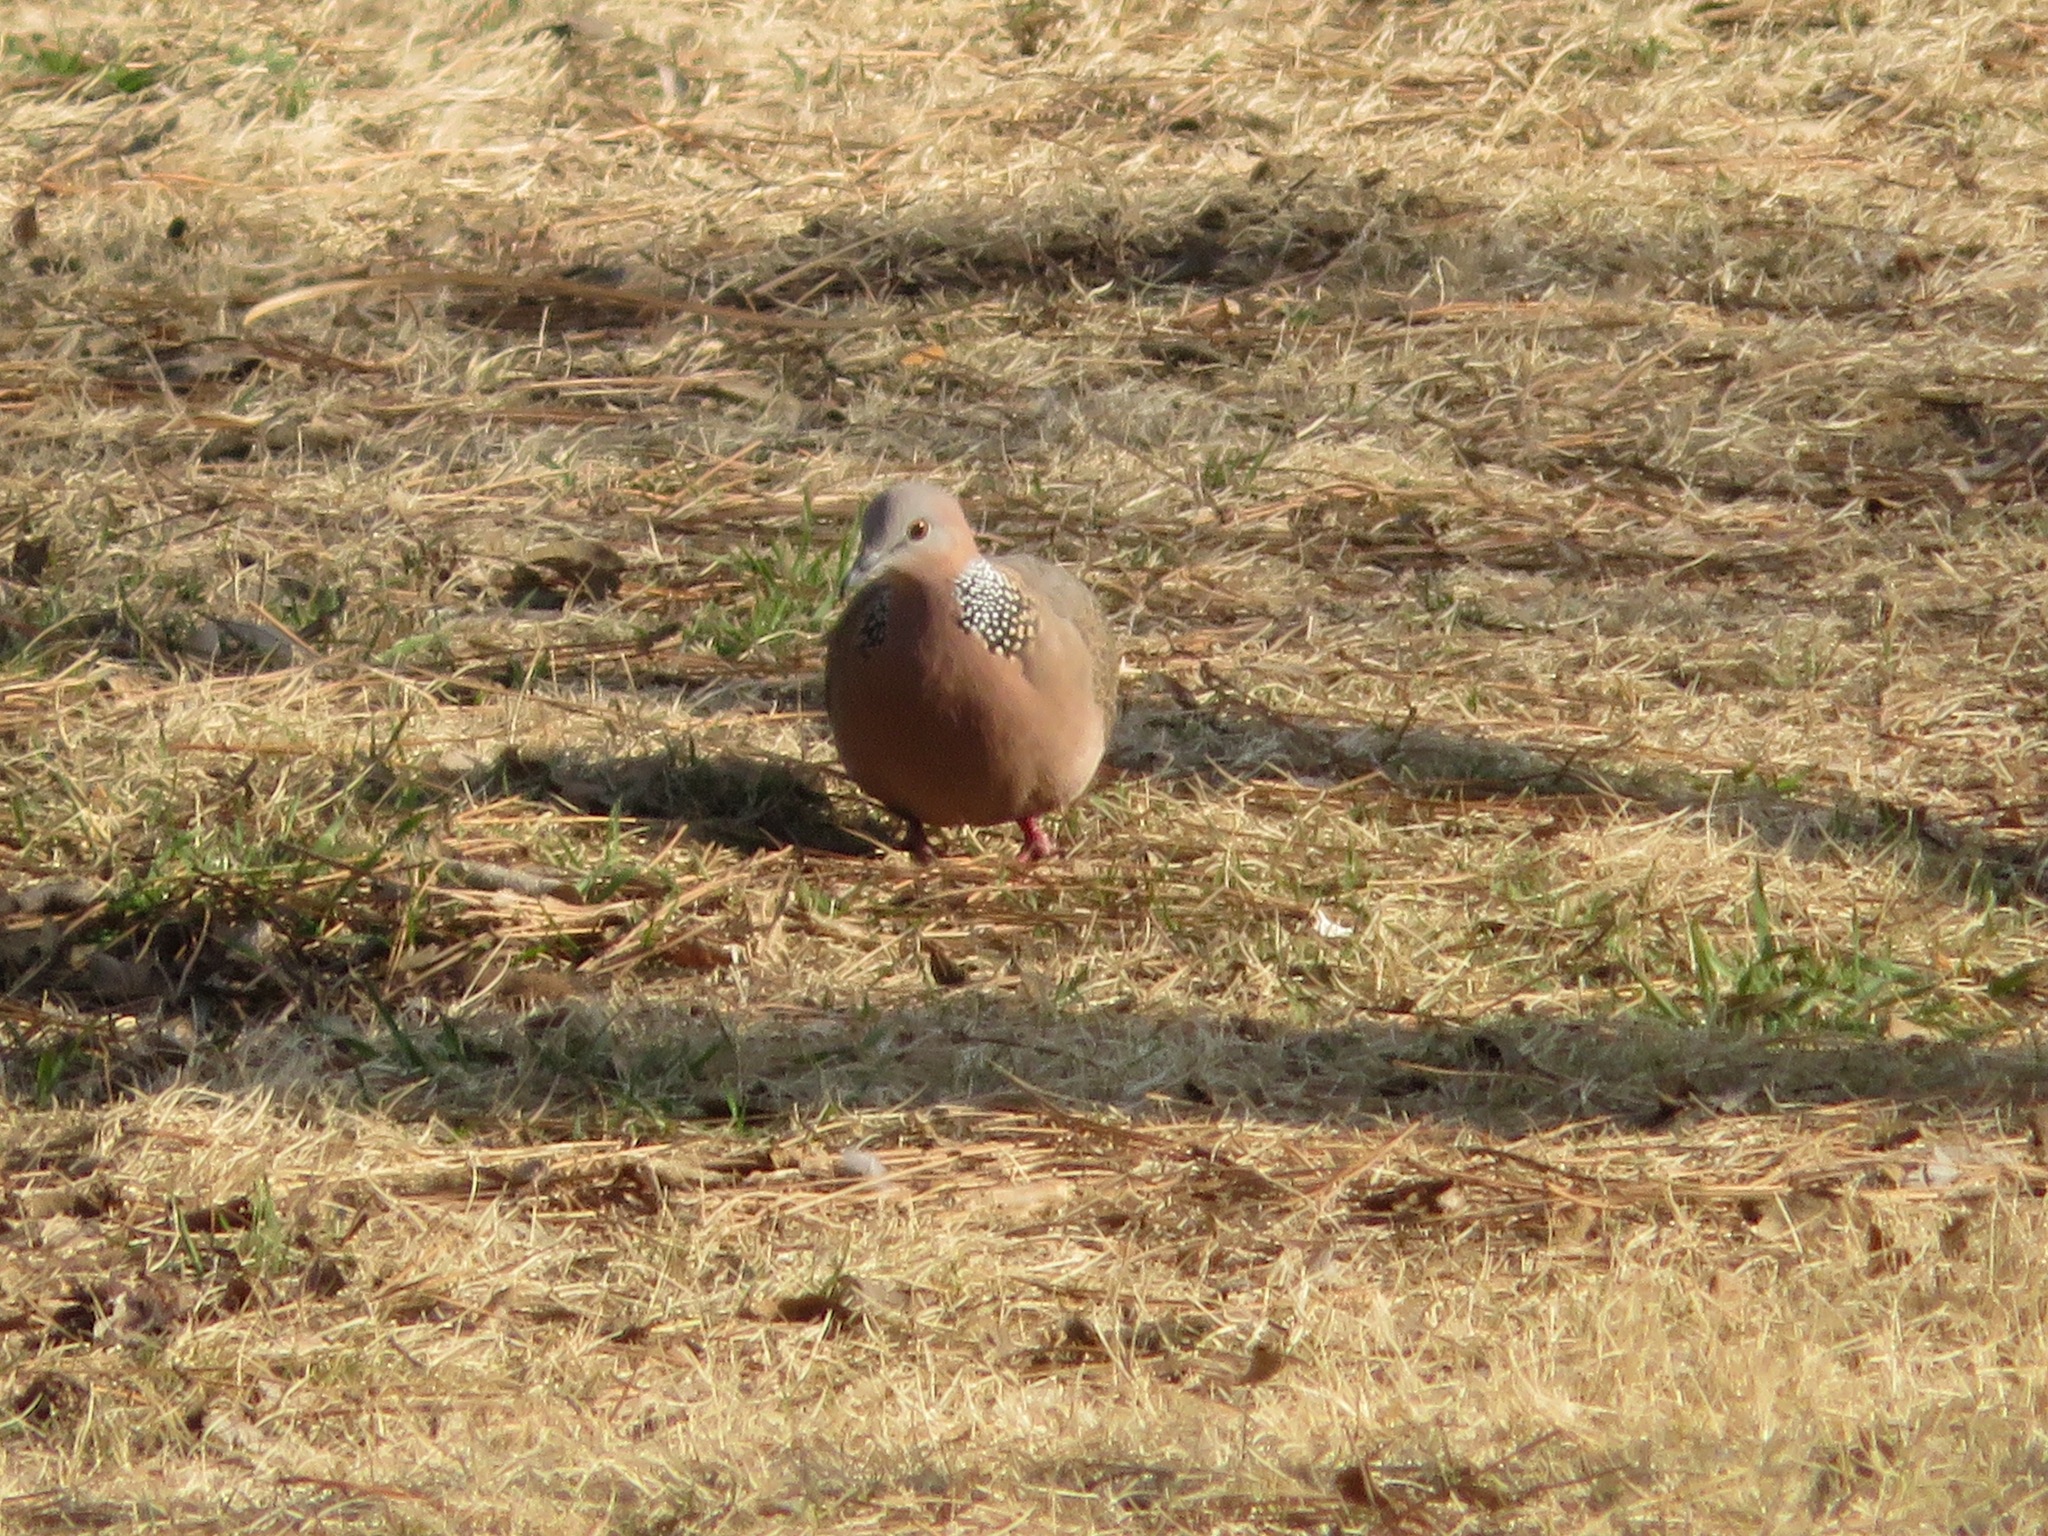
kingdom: Animalia
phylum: Chordata
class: Aves
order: Columbiformes
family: Columbidae
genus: Spilopelia
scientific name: Spilopelia chinensis
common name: Spotted dove
